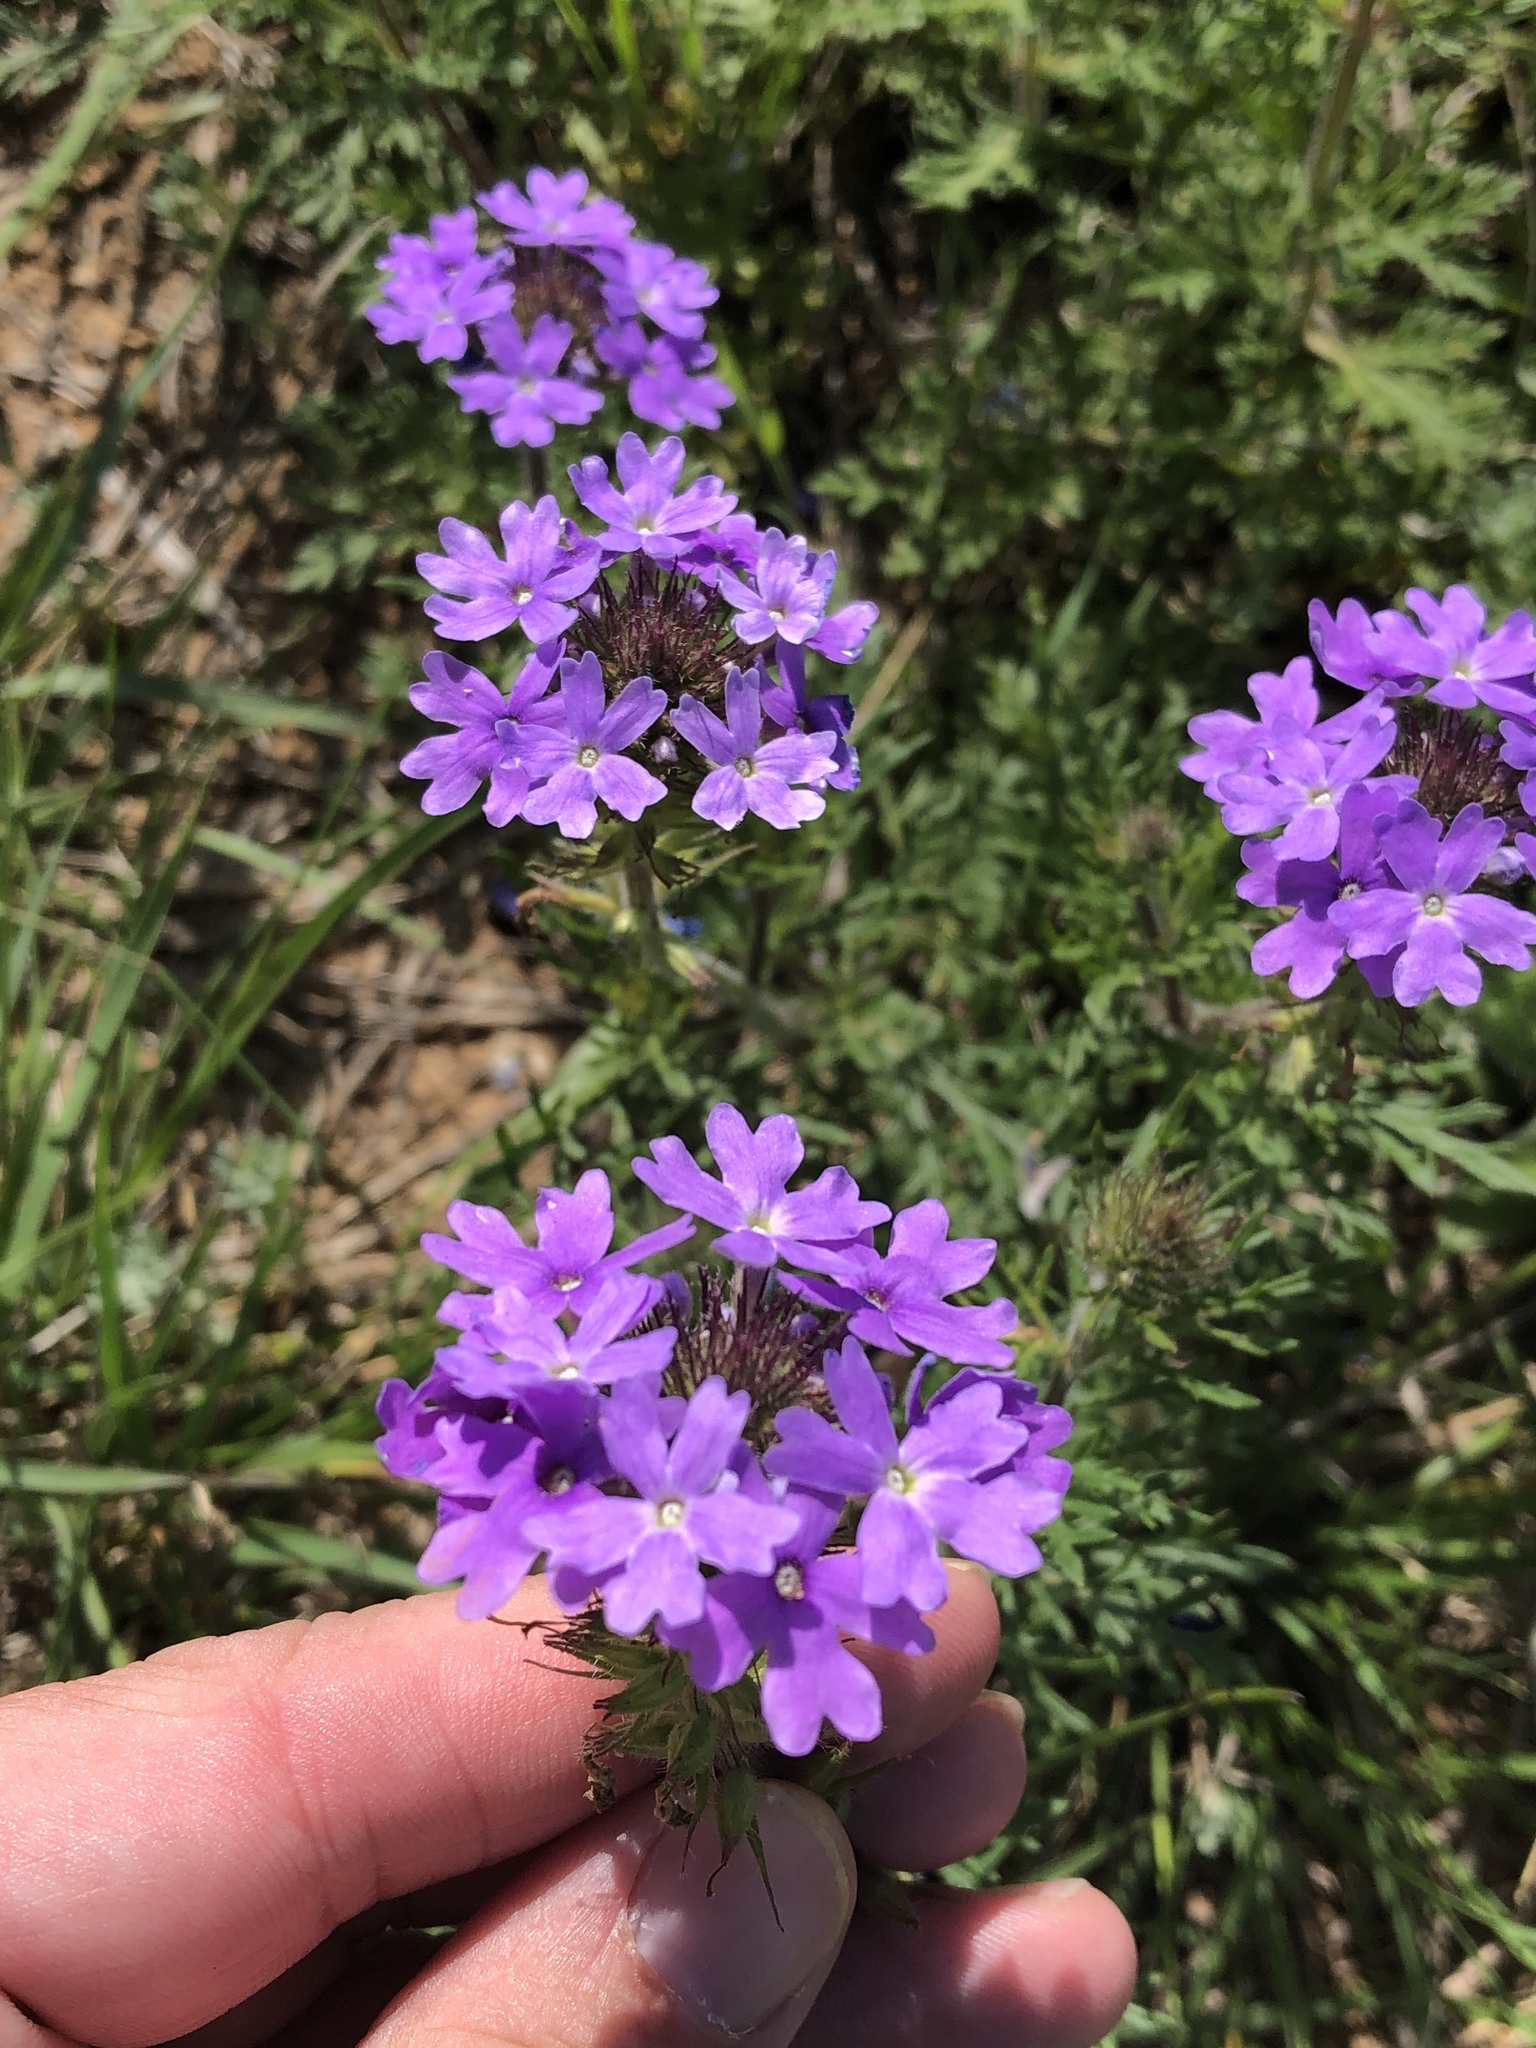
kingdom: Plantae
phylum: Tracheophyta
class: Magnoliopsida
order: Lamiales
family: Verbenaceae
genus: Verbena
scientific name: Verbena bipinnatifida
